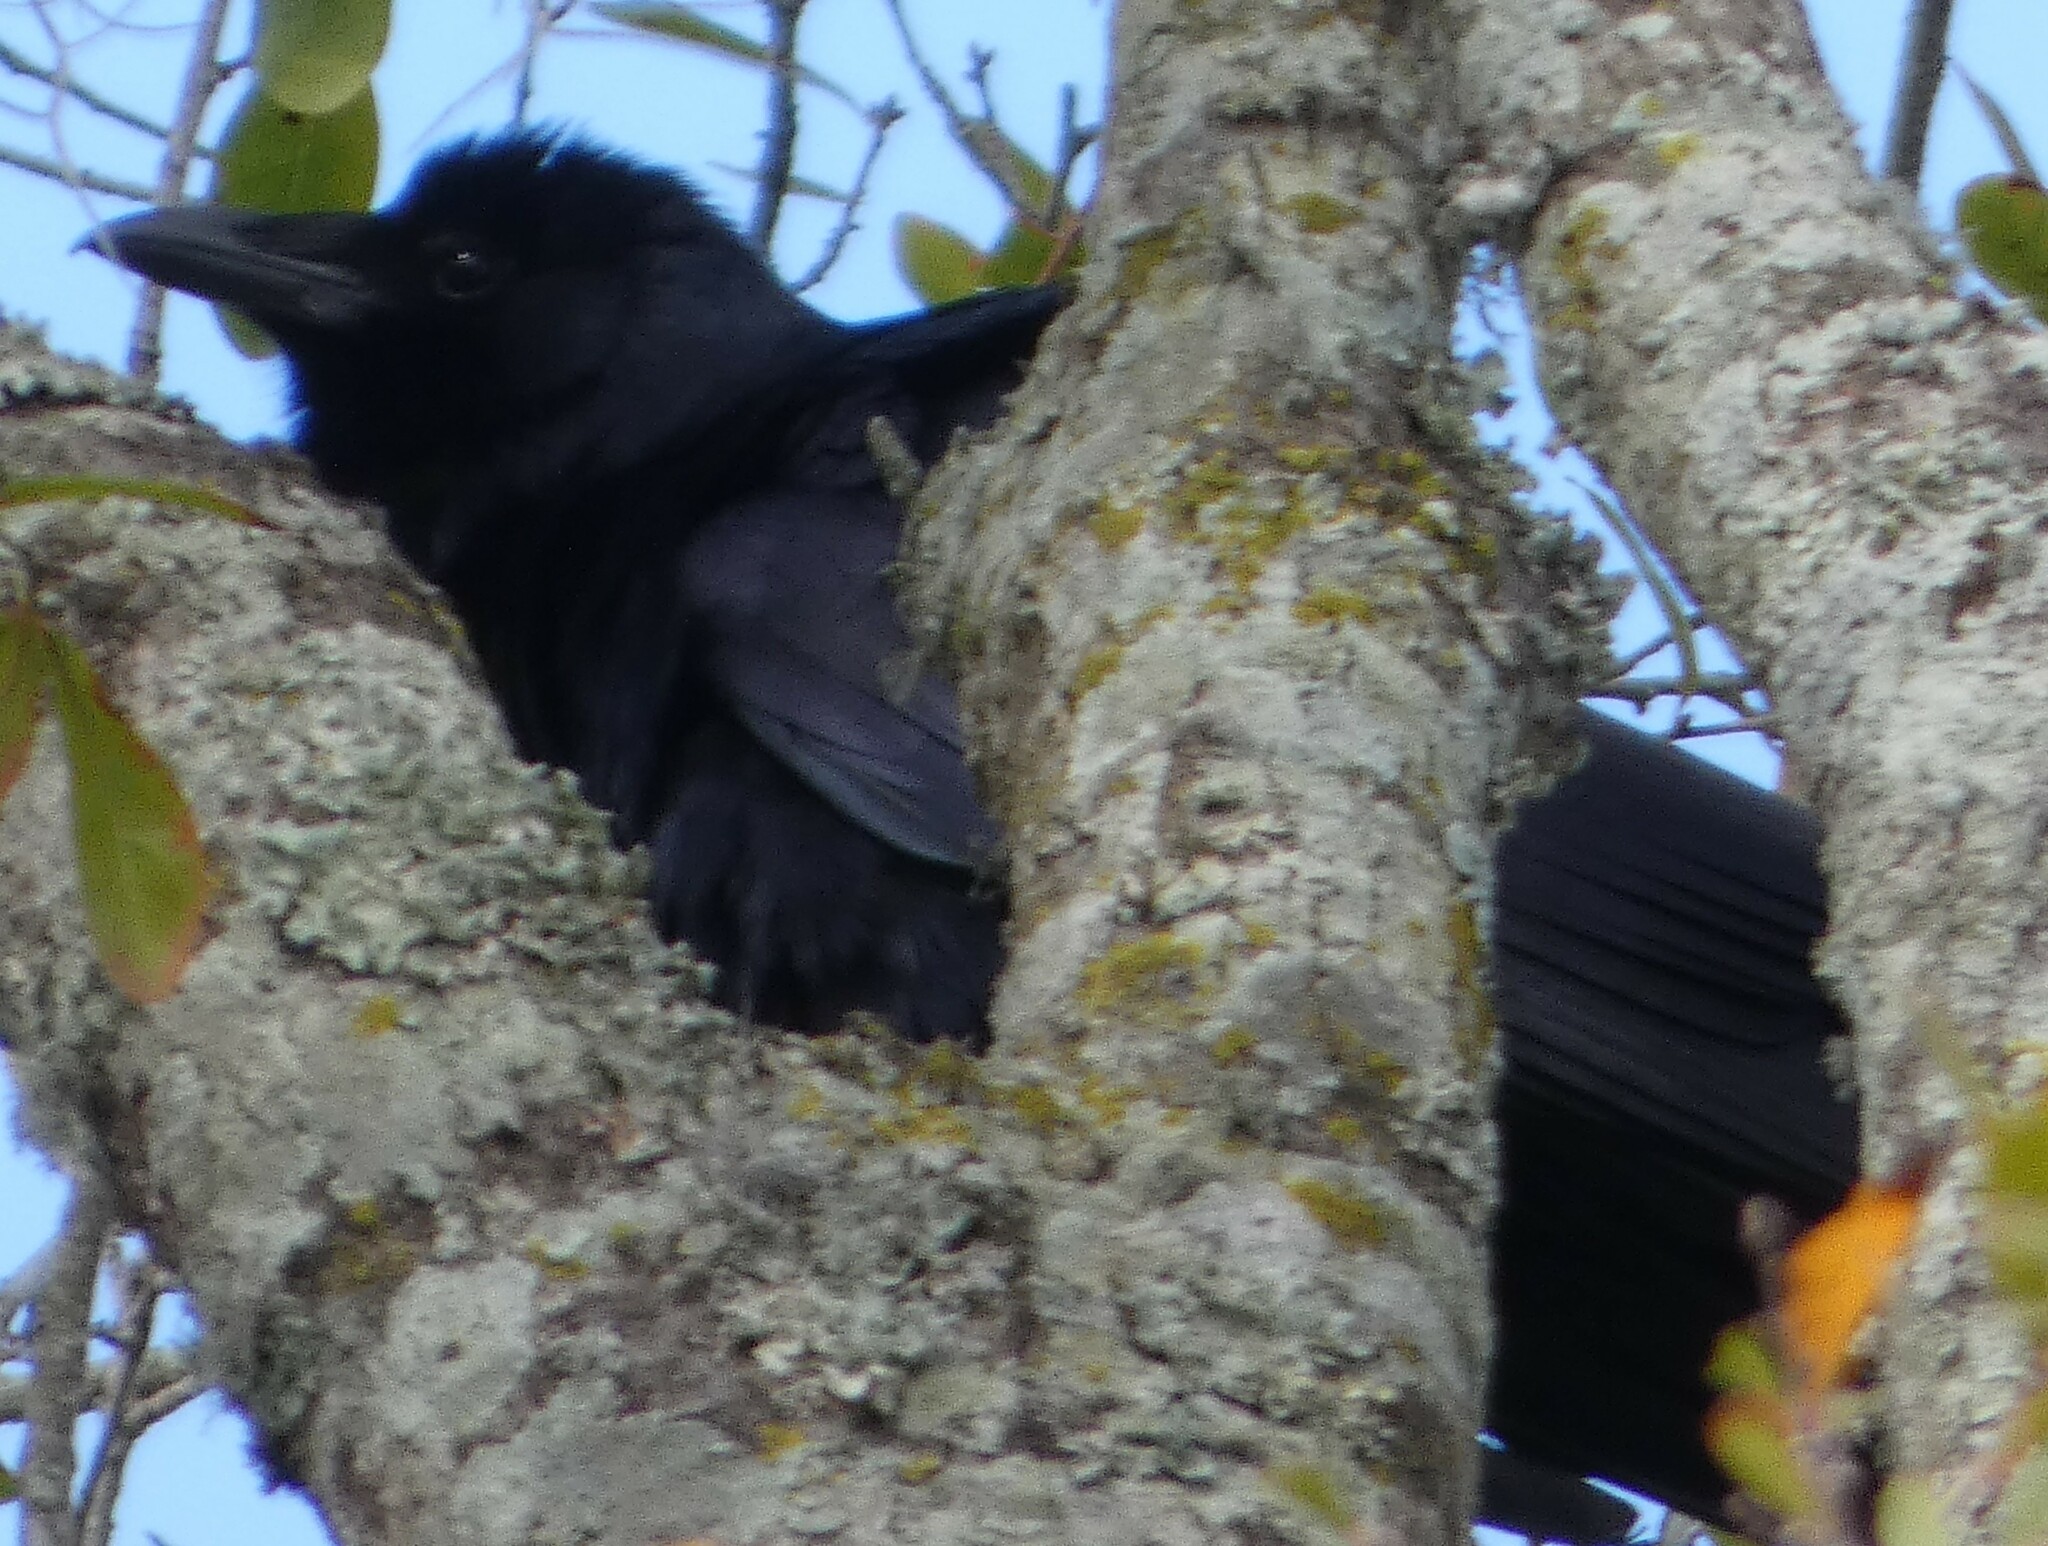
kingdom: Animalia
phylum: Chordata
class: Aves
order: Passeriformes
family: Corvidae
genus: Corvus
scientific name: Corvus ossifragus
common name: Fish crow
